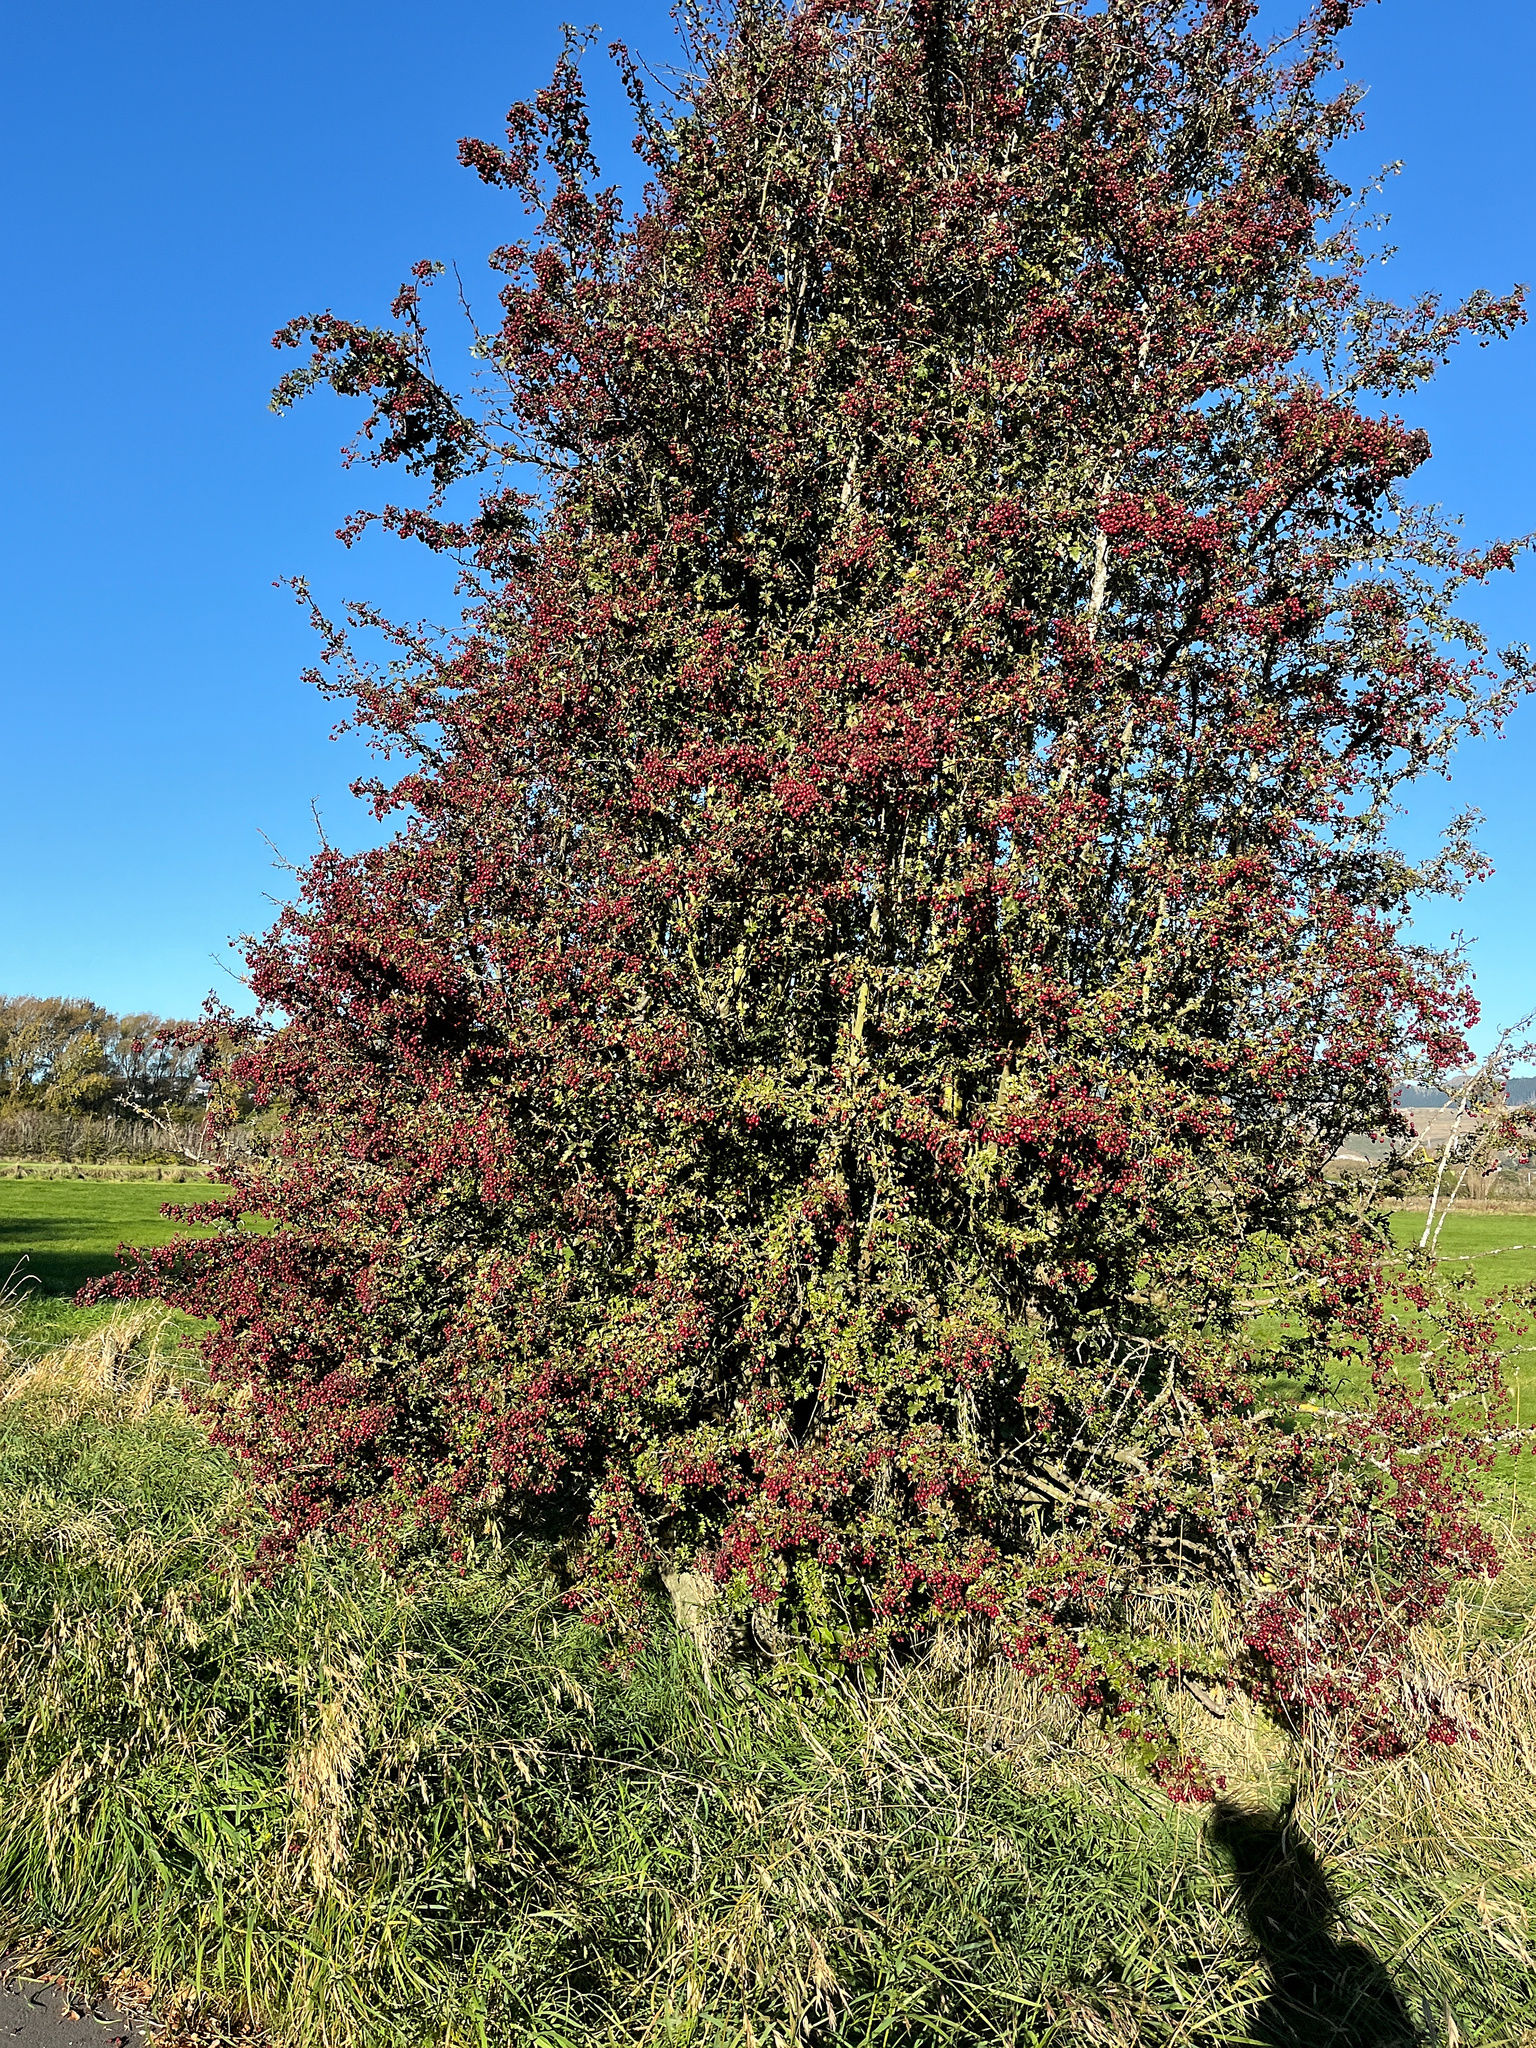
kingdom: Plantae
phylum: Tracheophyta
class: Magnoliopsida
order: Rosales
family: Rosaceae
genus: Crataegus
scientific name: Crataegus monogyna
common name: Hawthorn
